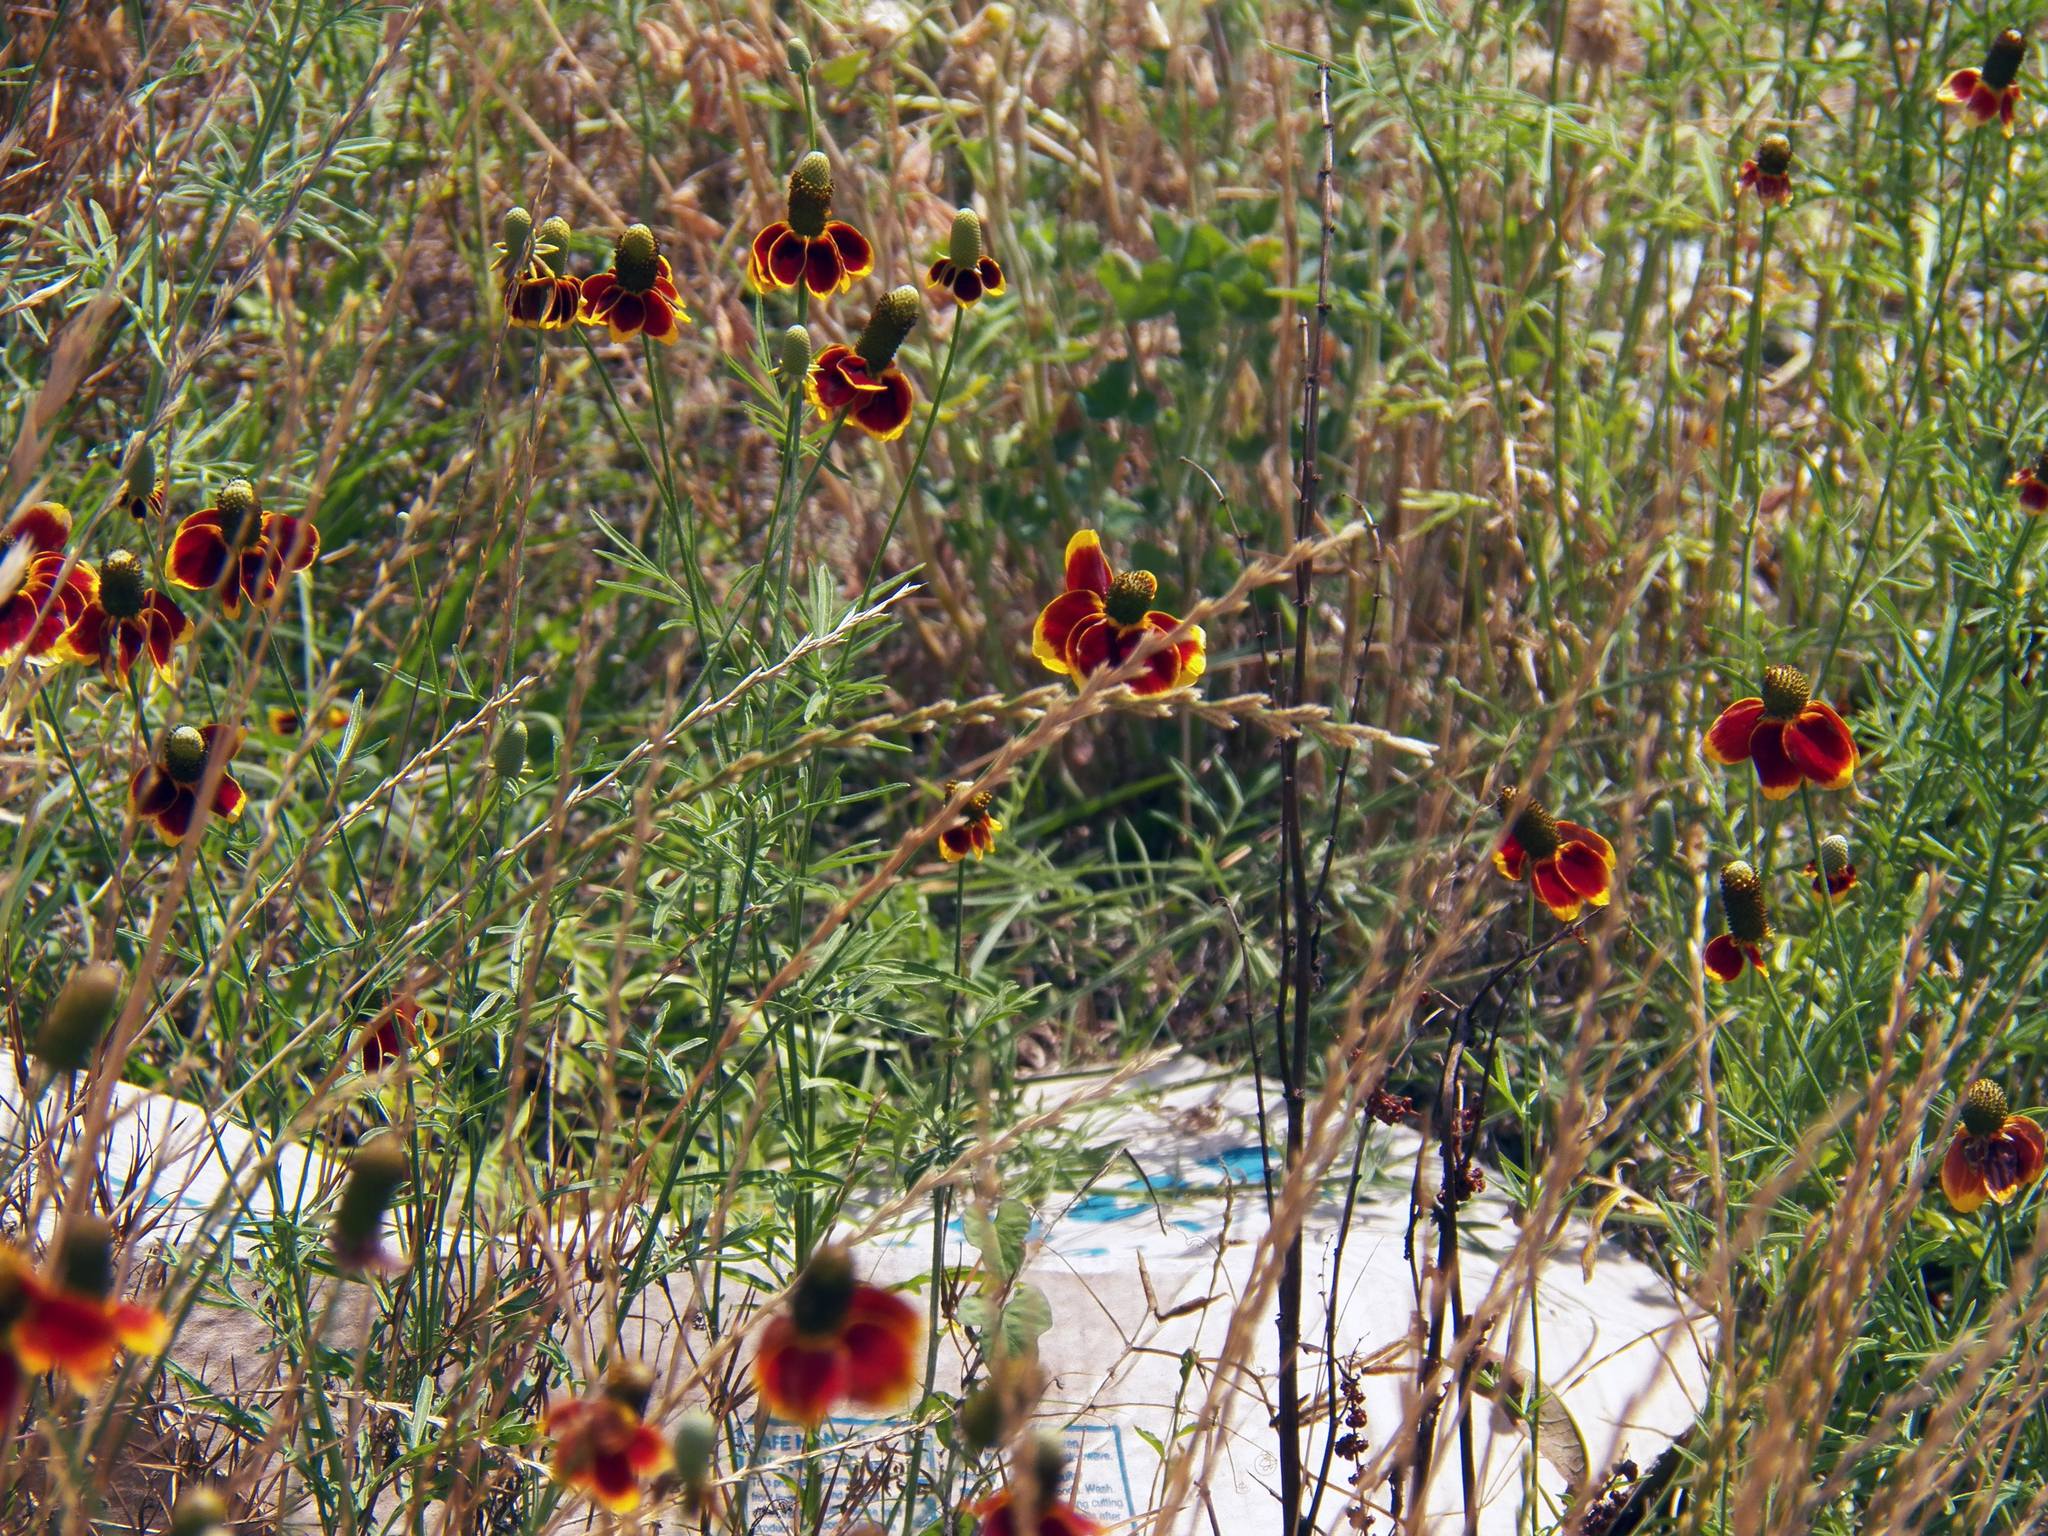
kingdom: Plantae
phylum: Tracheophyta
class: Magnoliopsida
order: Asterales
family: Asteraceae
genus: Ratibida
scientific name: Ratibida columnifera
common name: Prairie coneflower
